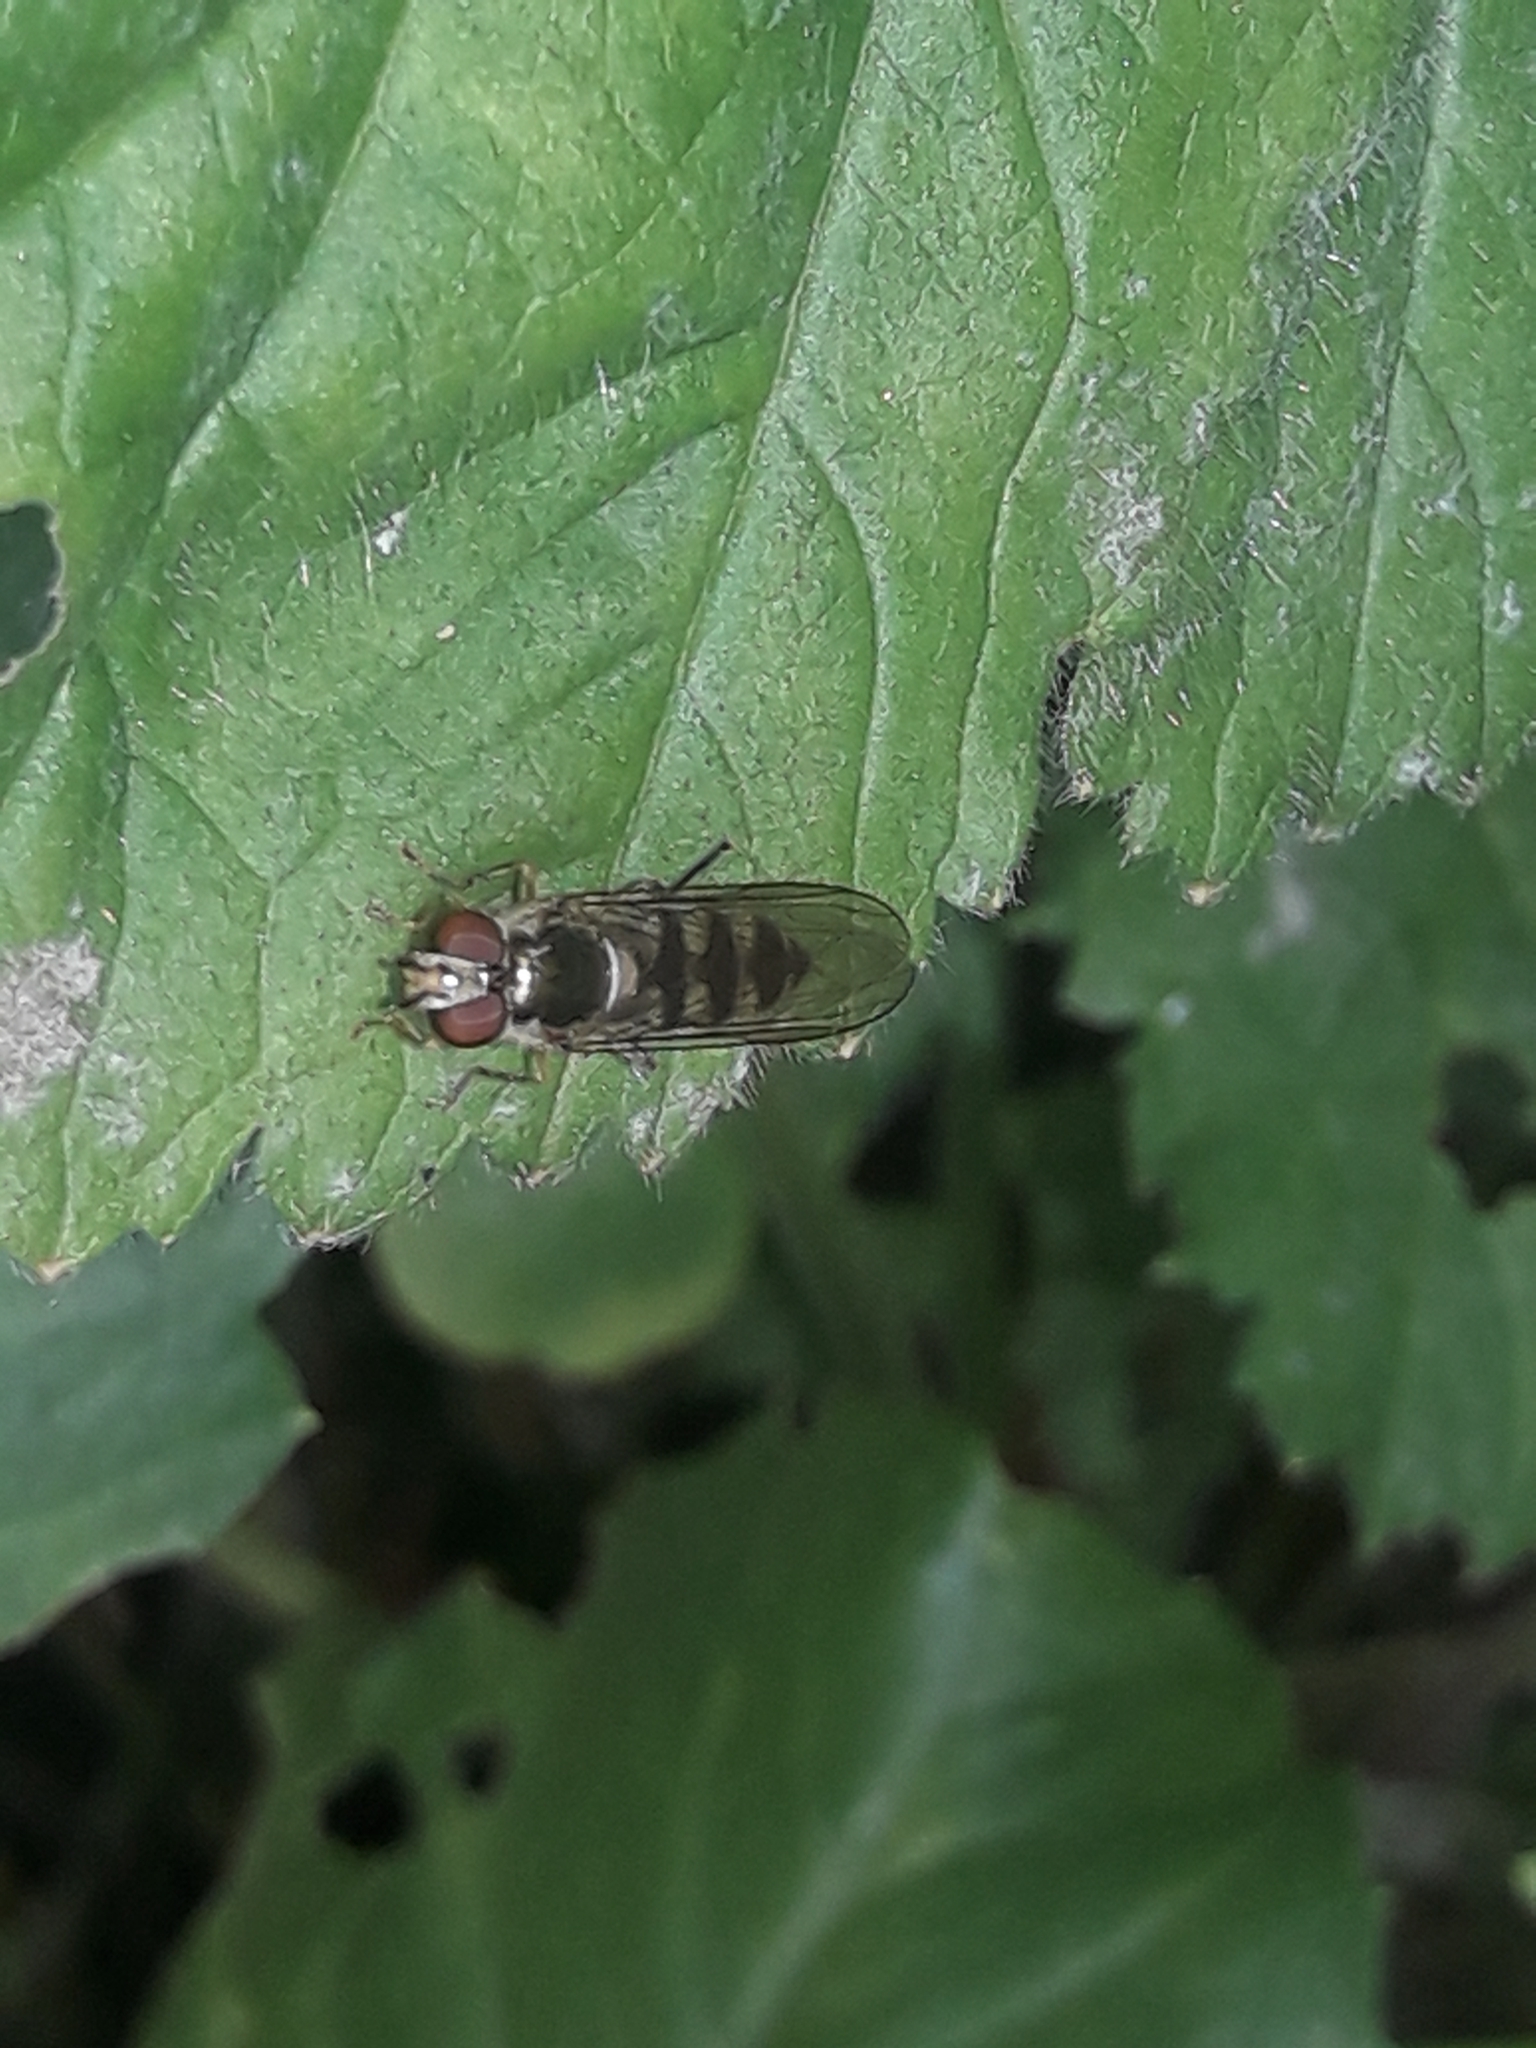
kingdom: Animalia
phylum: Arthropoda
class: Insecta
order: Diptera
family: Syrphidae
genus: Meliscaeva
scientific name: Meliscaeva auricollis
